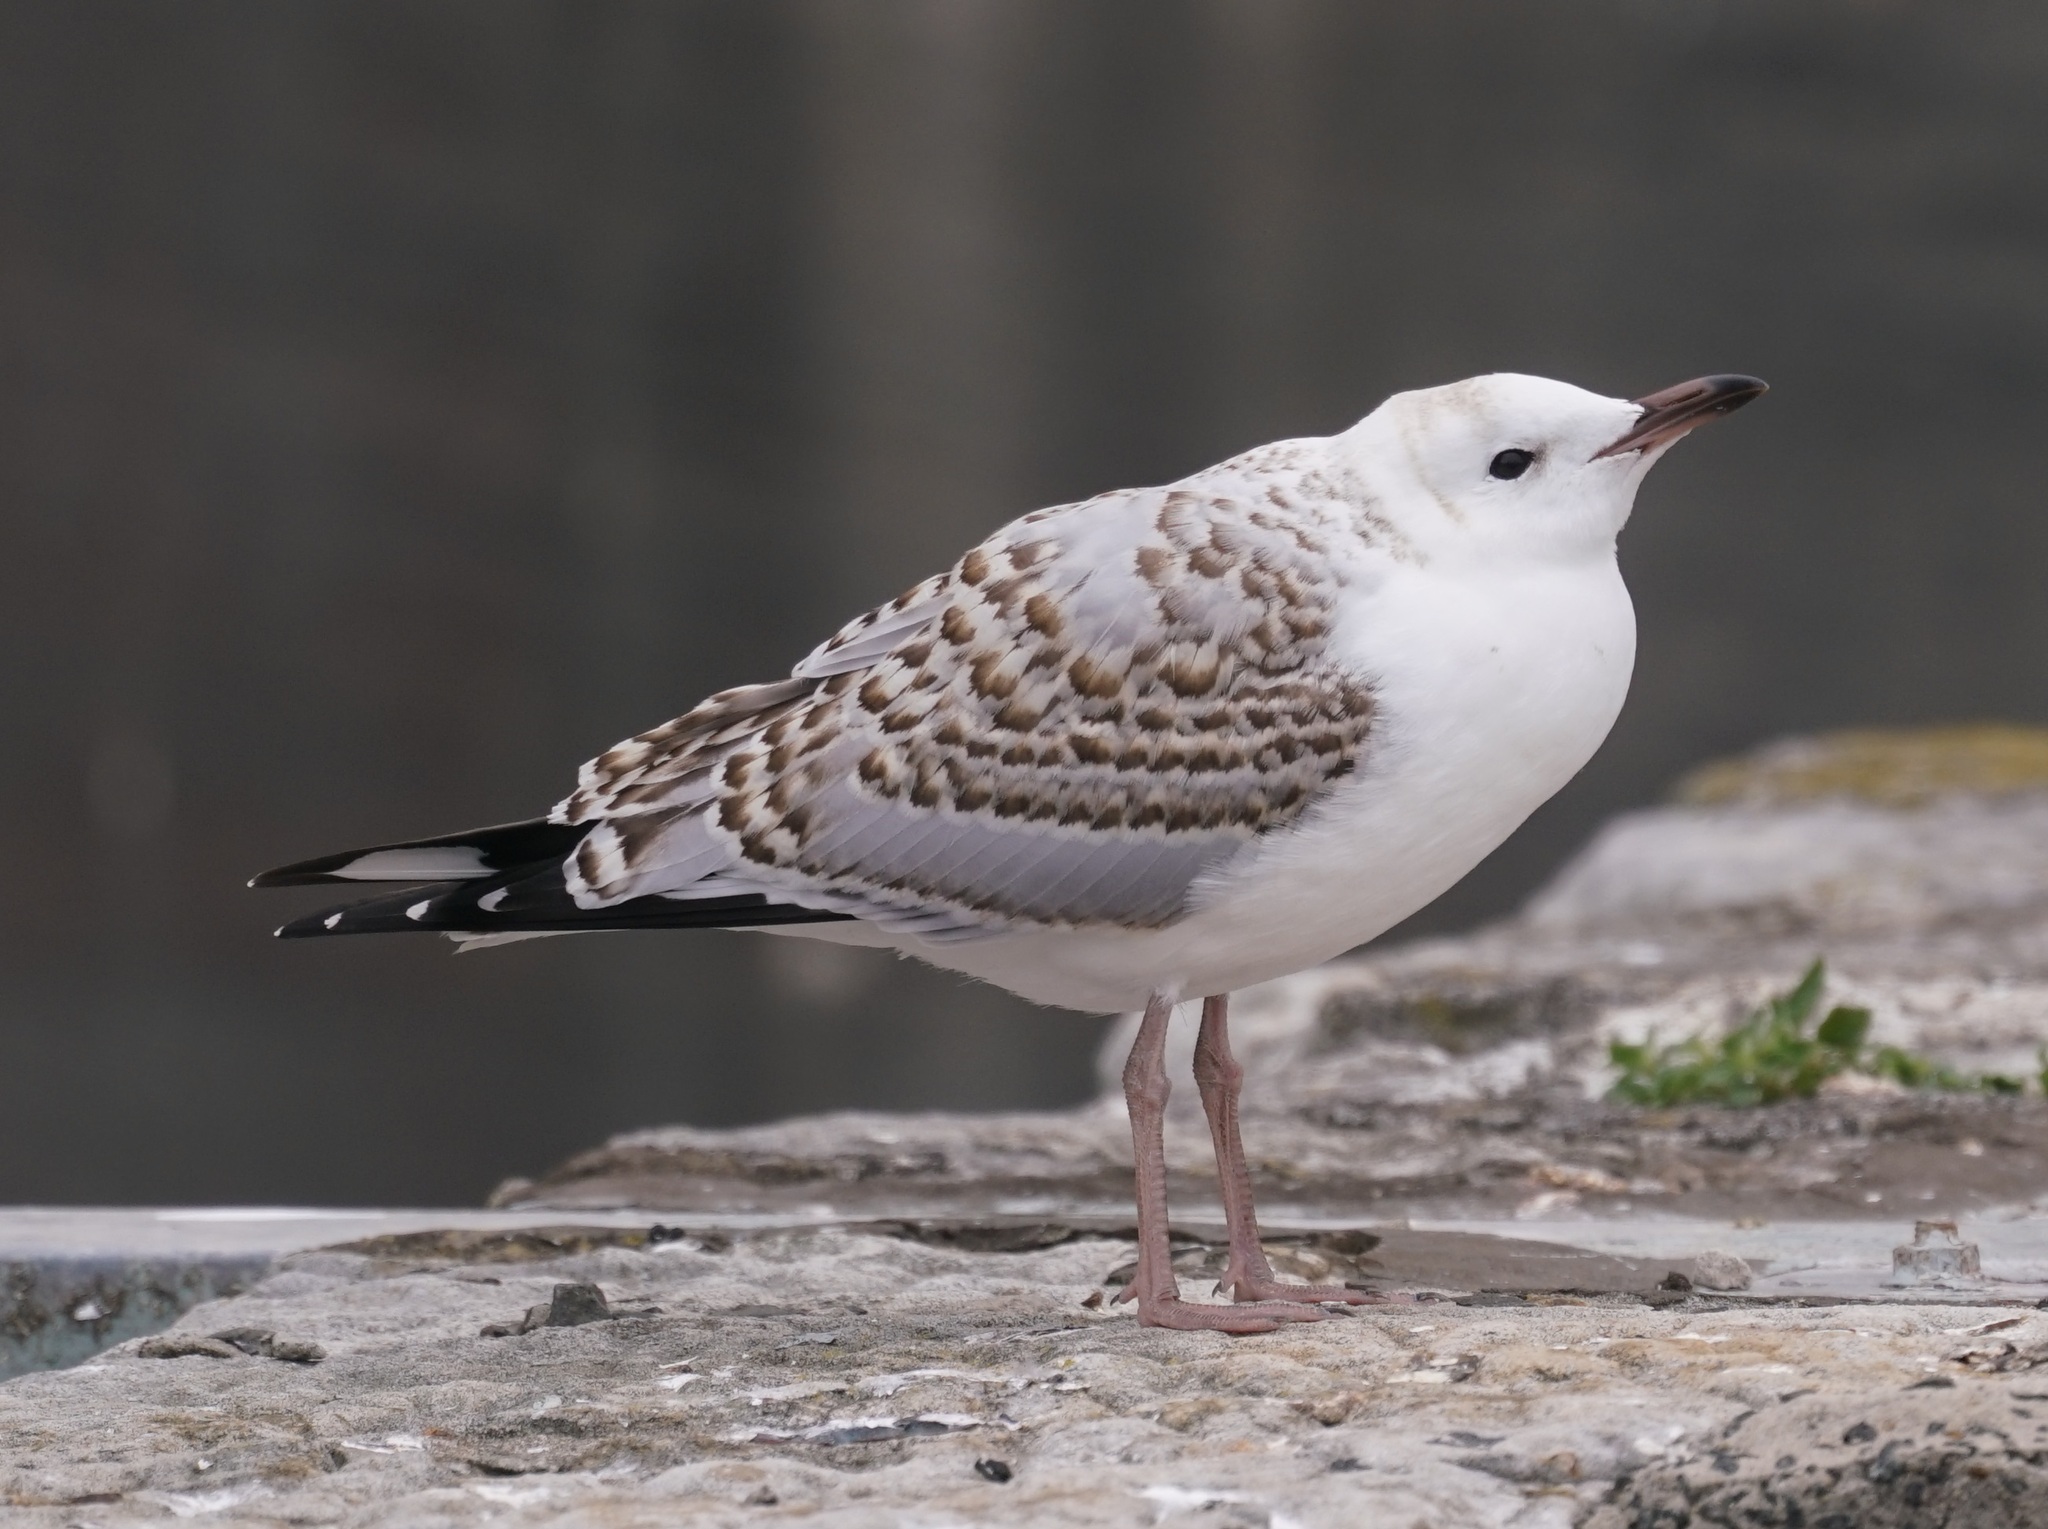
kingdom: Animalia
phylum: Chordata
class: Aves
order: Charadriiformes
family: Laridae
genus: Chroicocephalus
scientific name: Chroicocephalus novaehollandiae
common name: Silver gull
